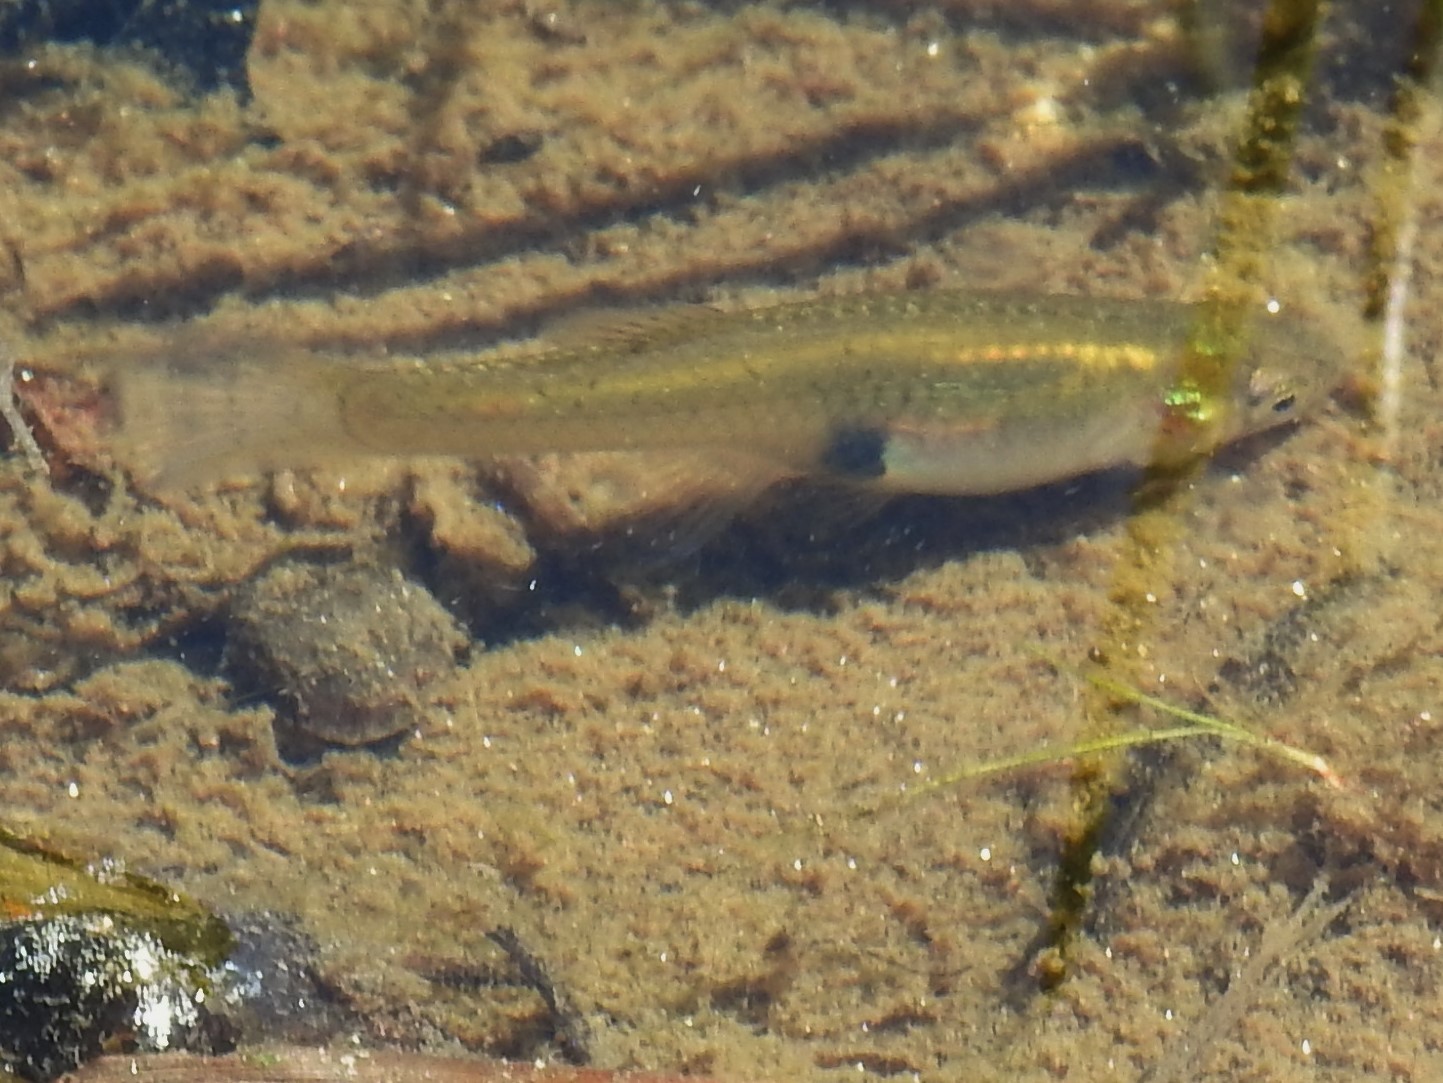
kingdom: Animalia
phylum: Chordata
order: Cyprinodontiformes
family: Poeciliidae
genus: Gambusia
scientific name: Gambusia holbrooki
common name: Eastern mosquitofish
